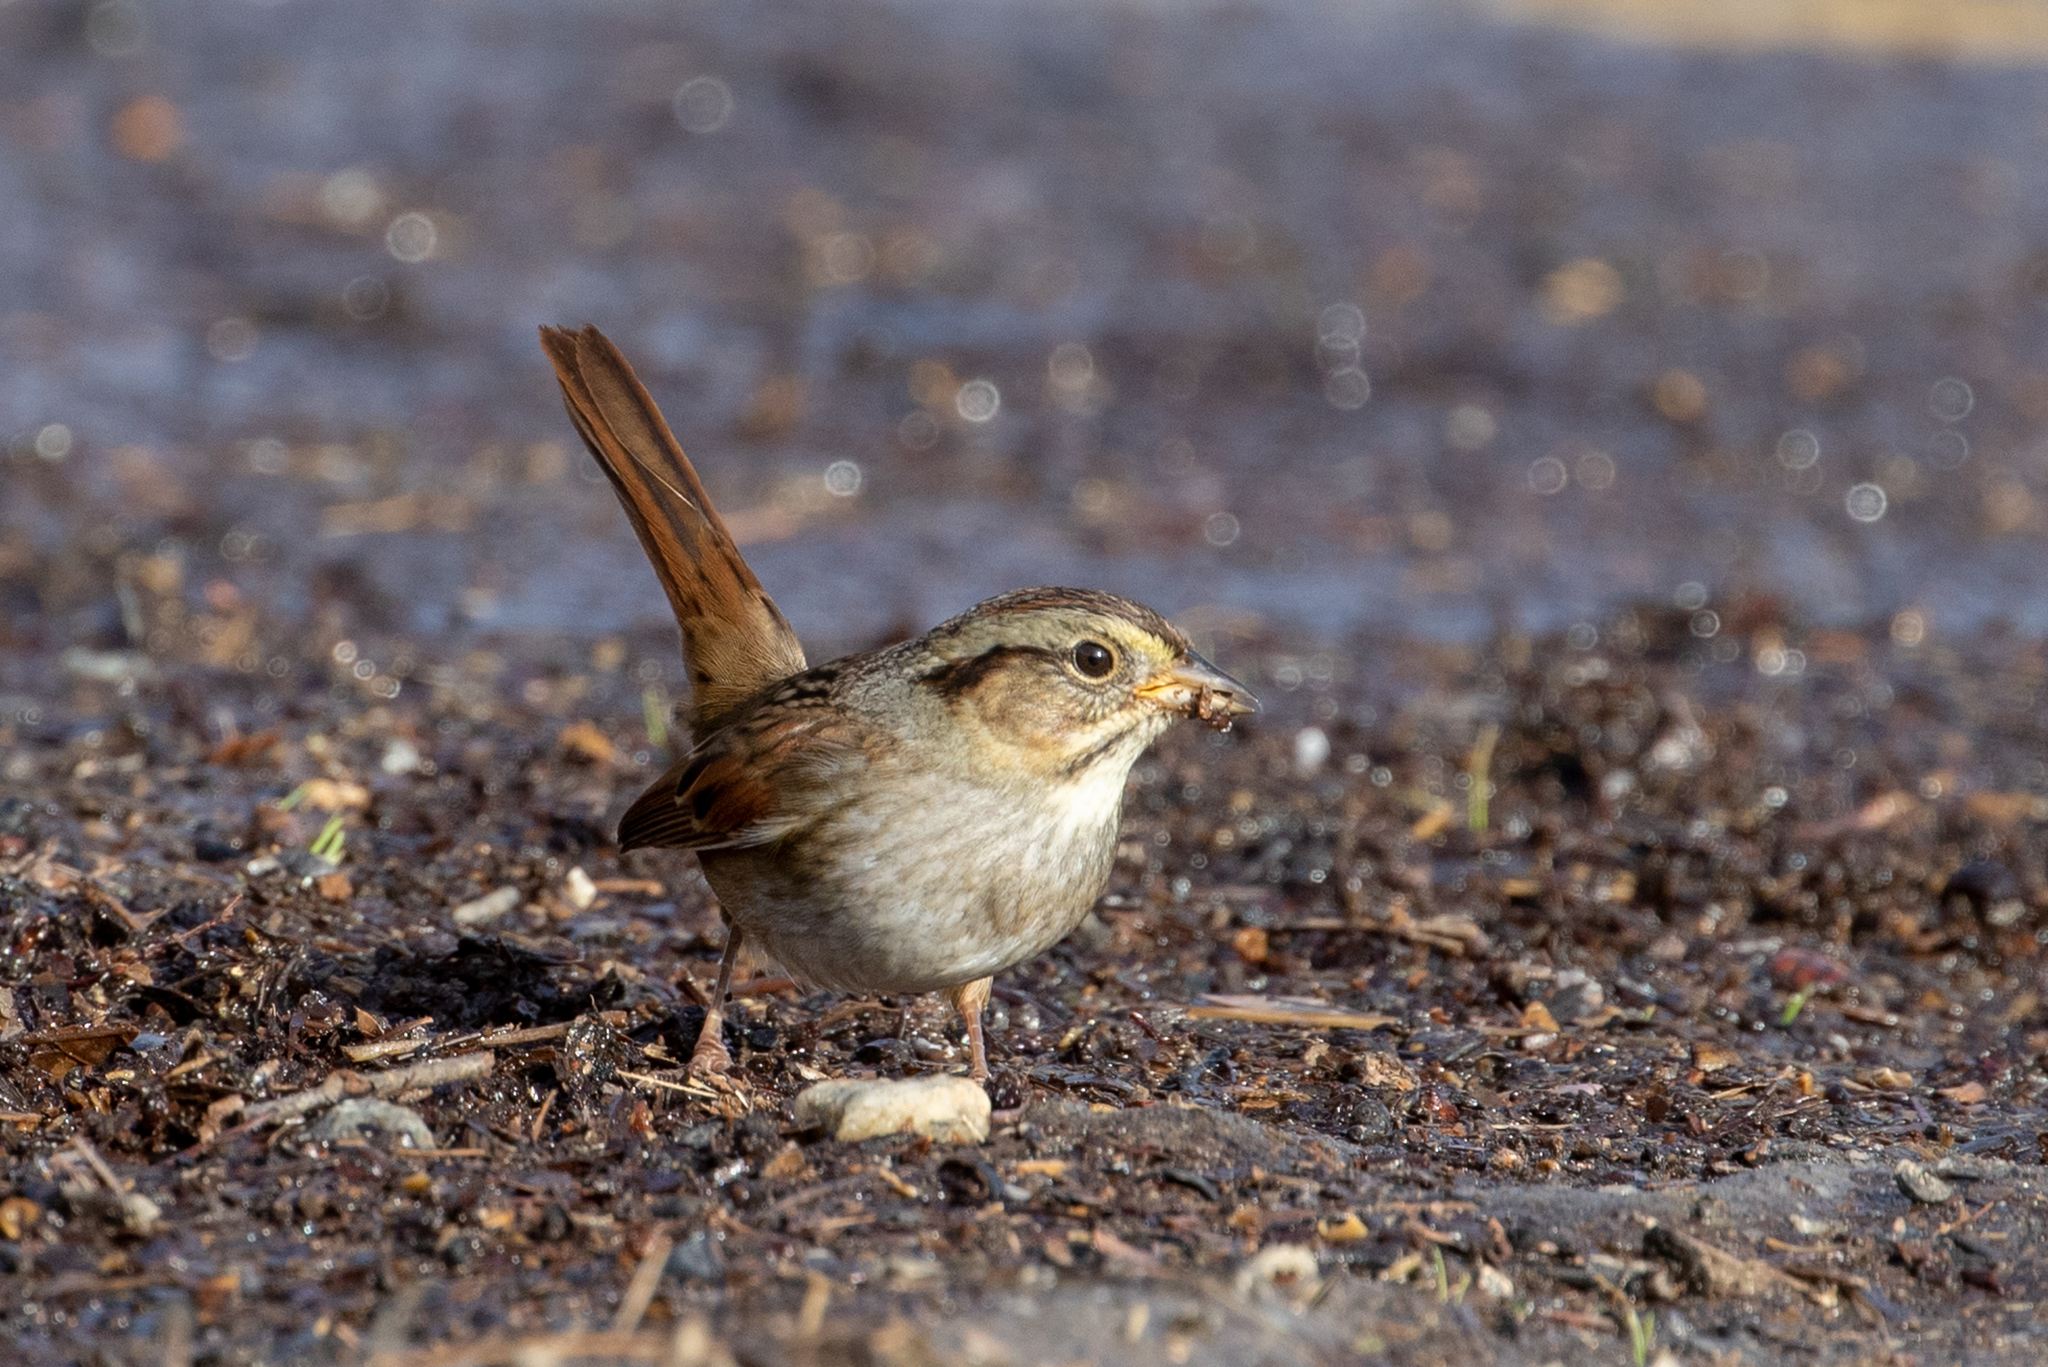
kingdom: Animalia
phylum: Chordata
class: Aves
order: Passeriformes
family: Passerellidae
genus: Melospiza
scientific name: Melospiza georgiana
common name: Swamp sparrow
